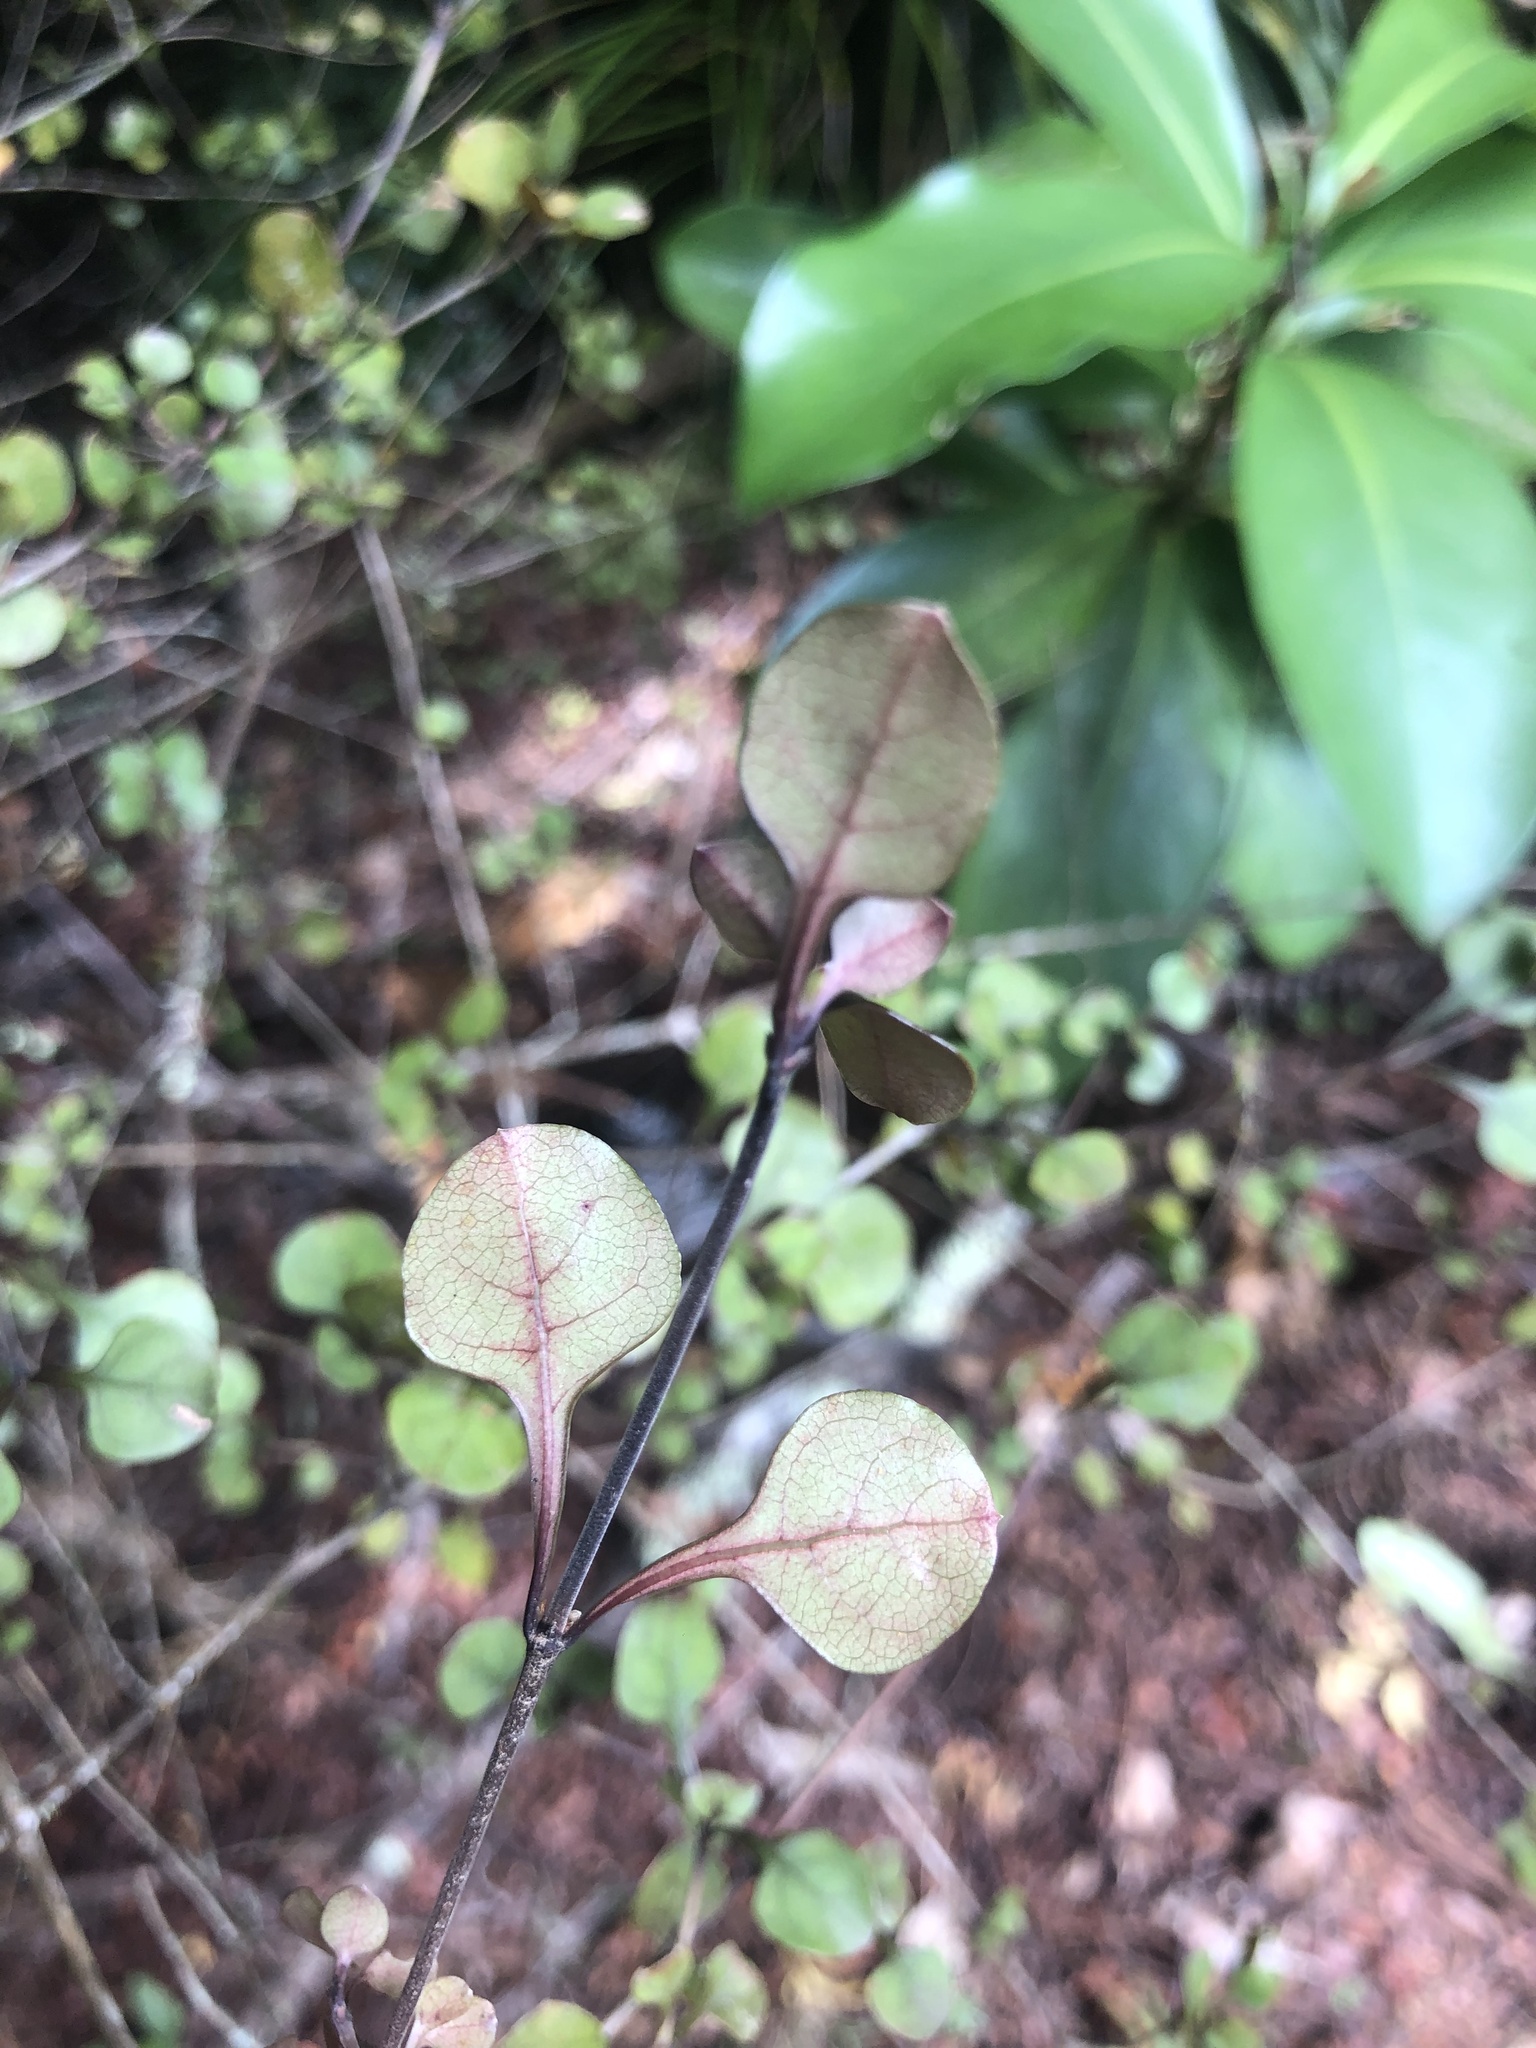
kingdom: Plantae
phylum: Tracheophyta
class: Magnoliopsida
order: Gentianales
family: Rubiaceae
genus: Coprosma
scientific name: Coprosma arborea
